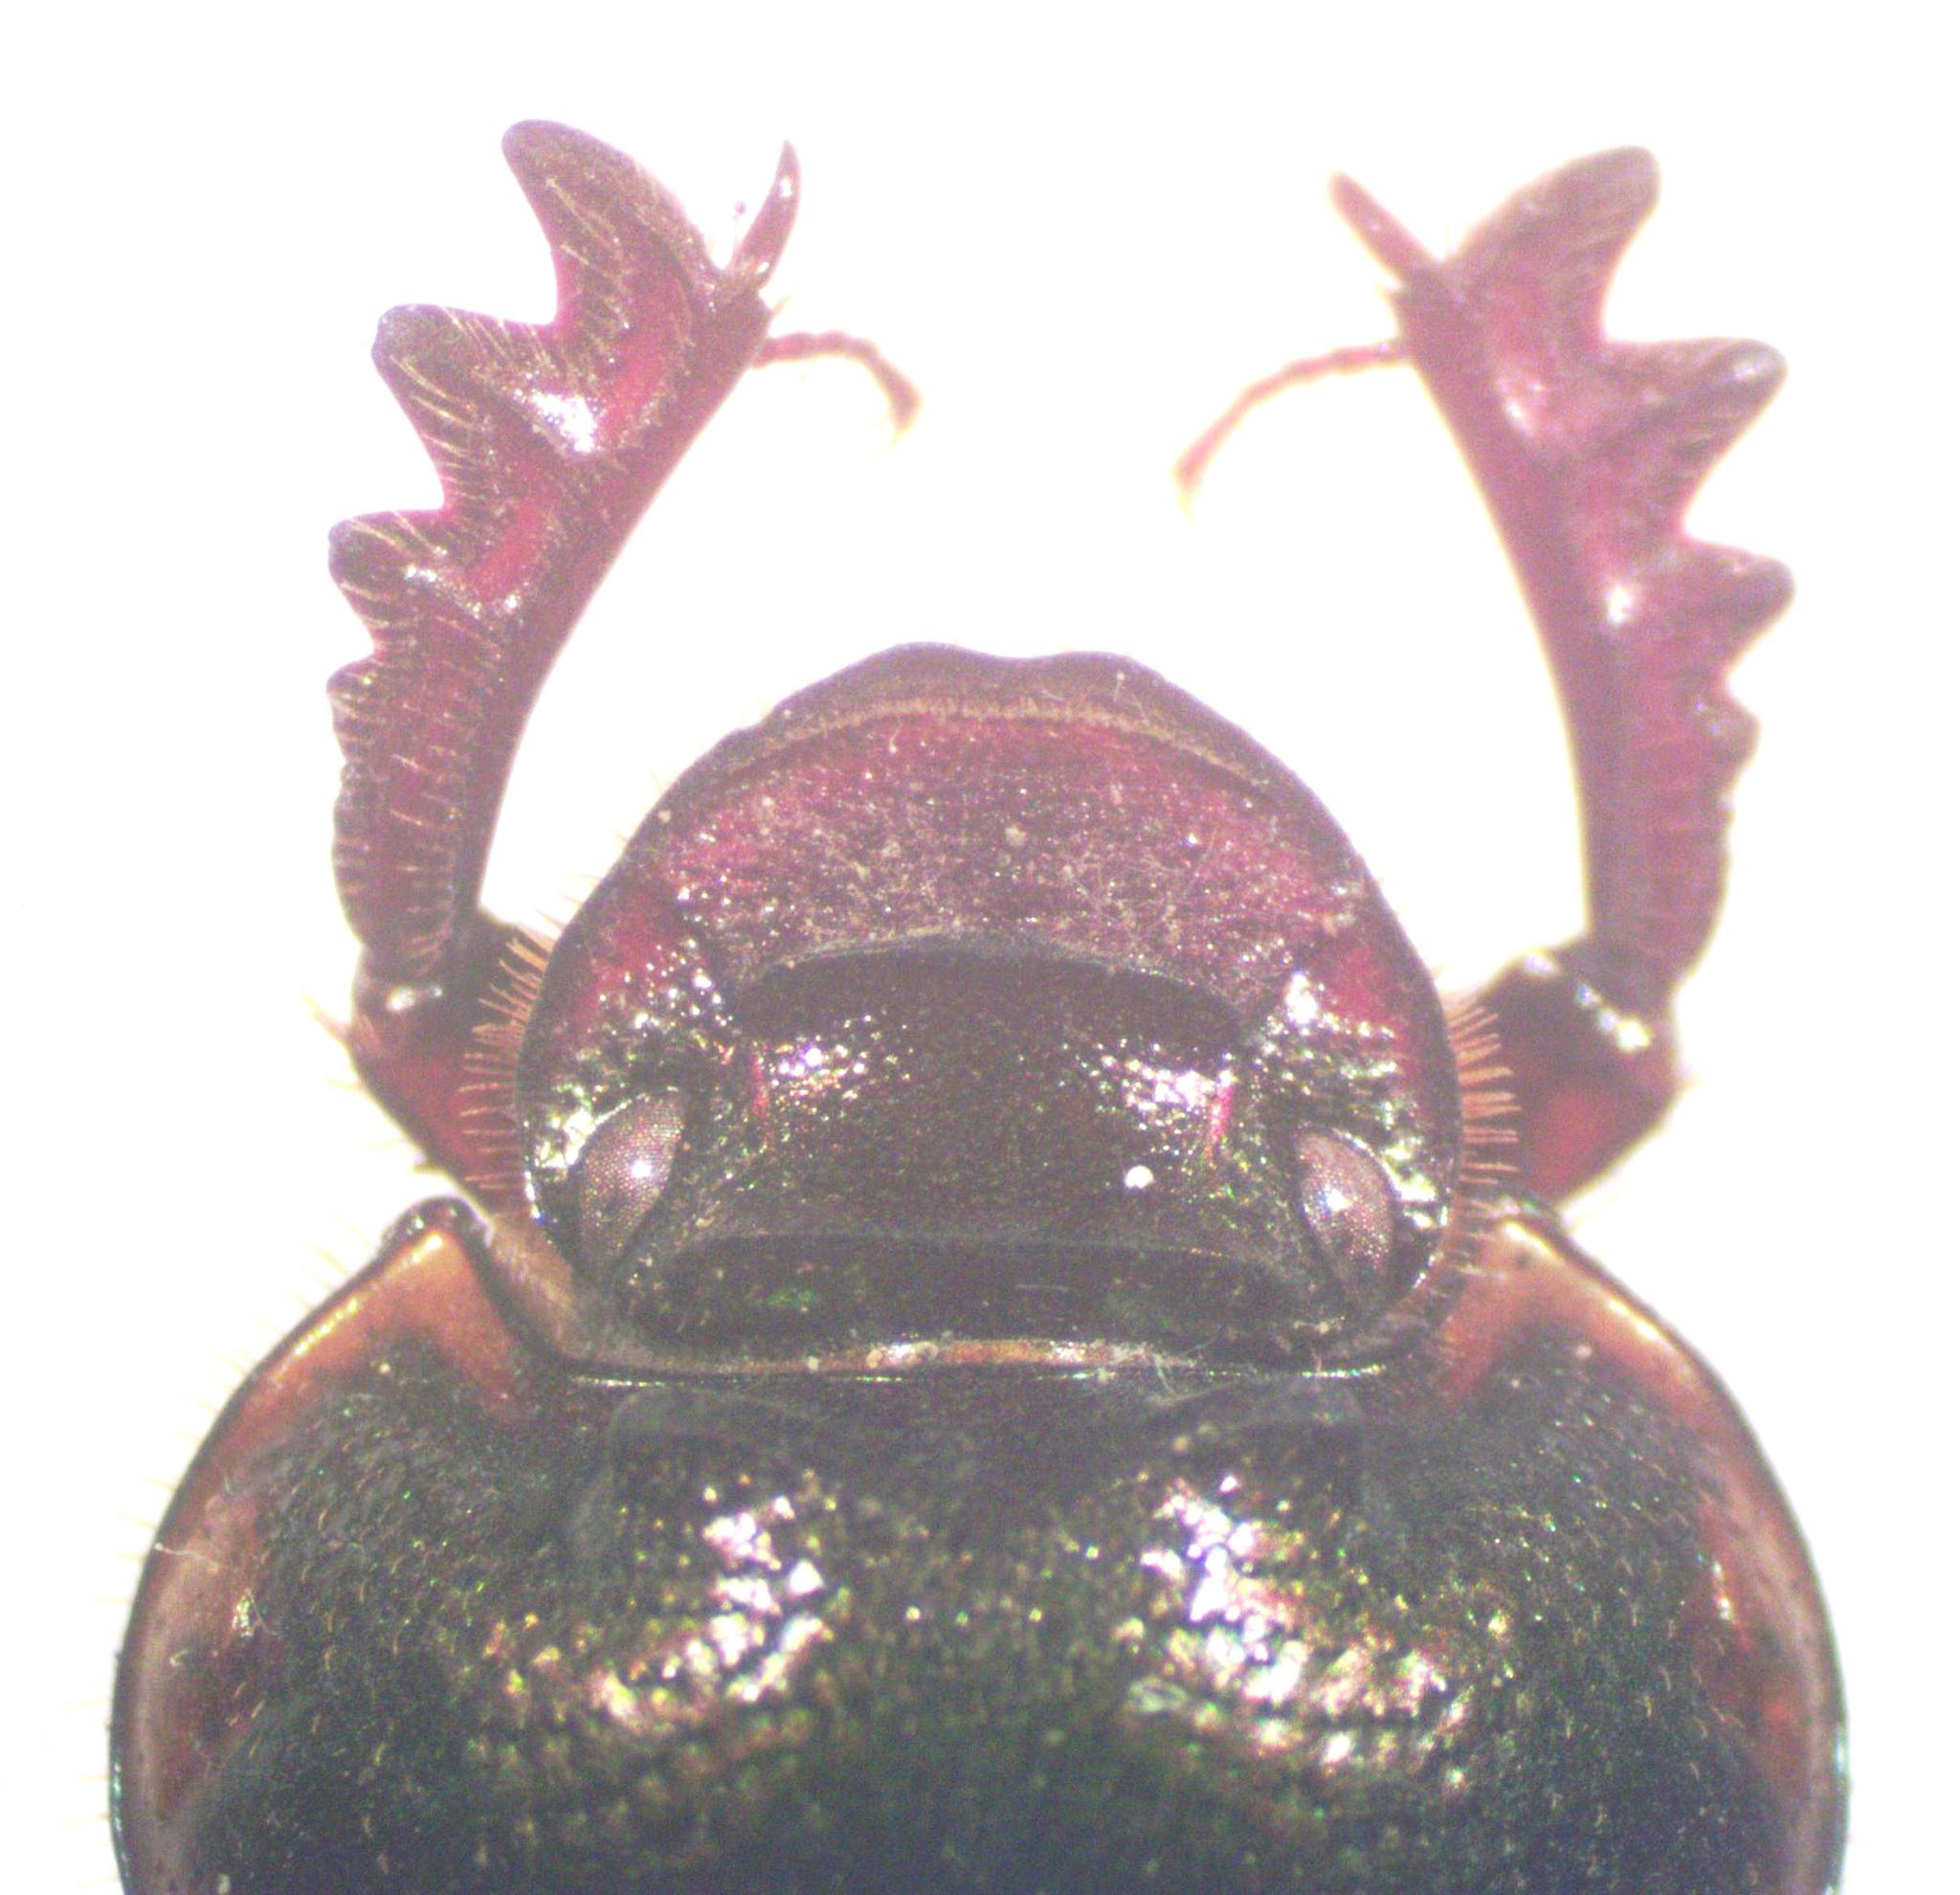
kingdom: Animalia
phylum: Arthropoda
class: Insecta
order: Coleoptera
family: Scarabaeidae
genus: Digitonthophagus
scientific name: Digitonthophagus gazella
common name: Brown dung beetle
